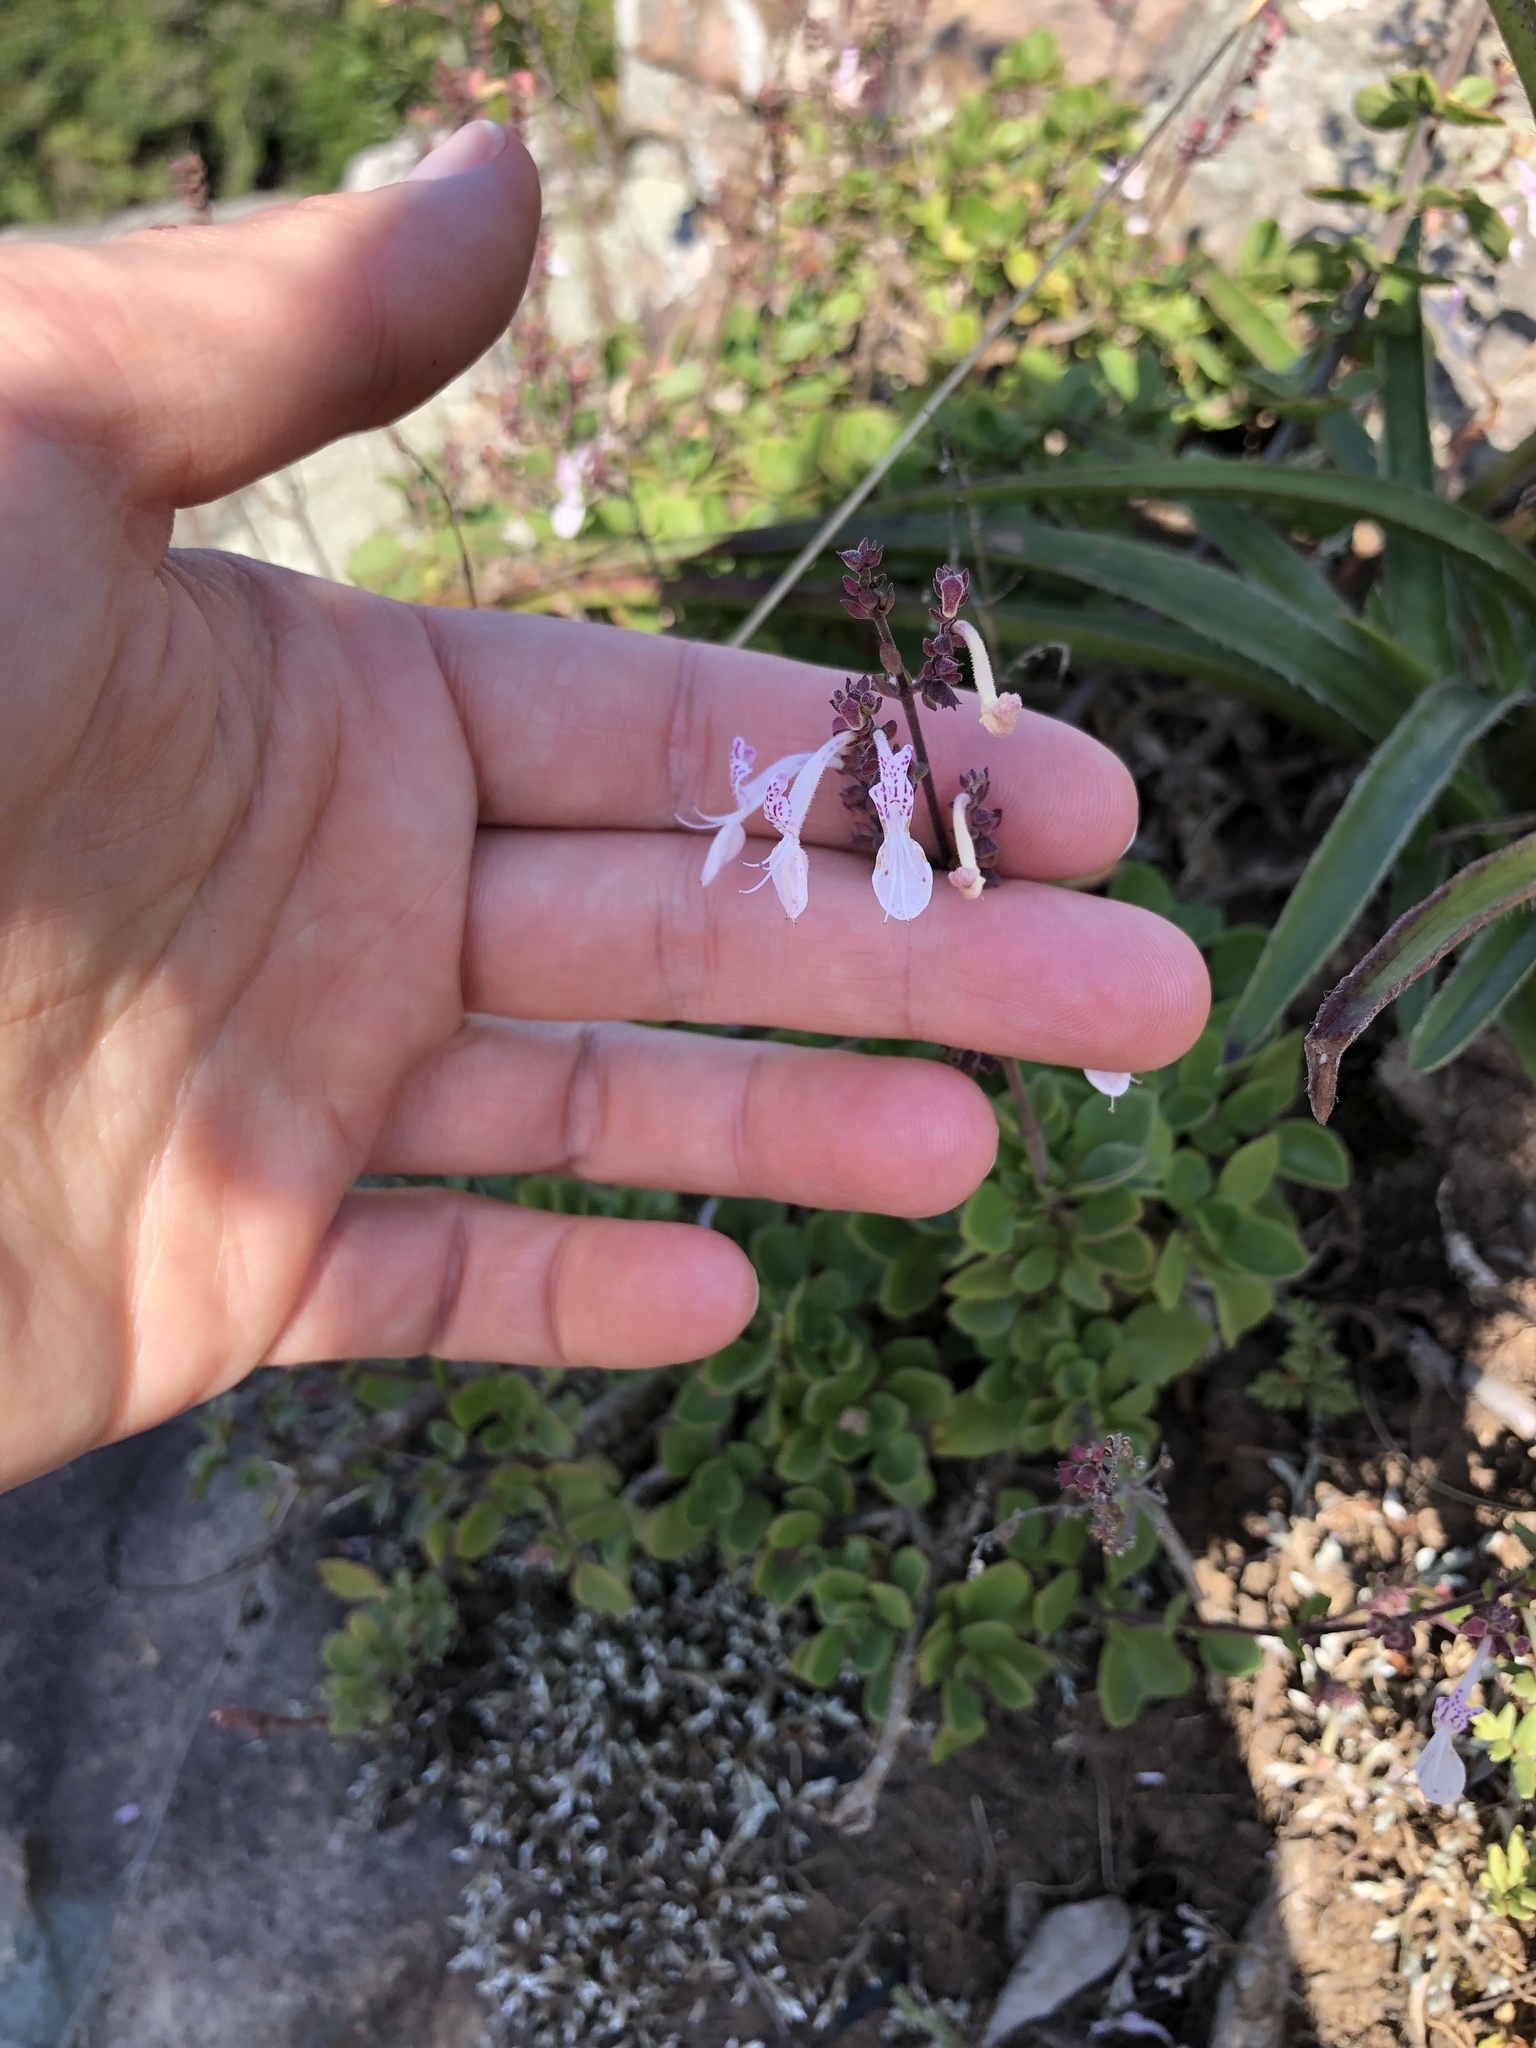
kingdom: Plantae
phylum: Tracheophyta
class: Magnoliopsida
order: Lamiales
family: Lamiaceae
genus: Aeollanthus
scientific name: Aeollanthus parvifolius
